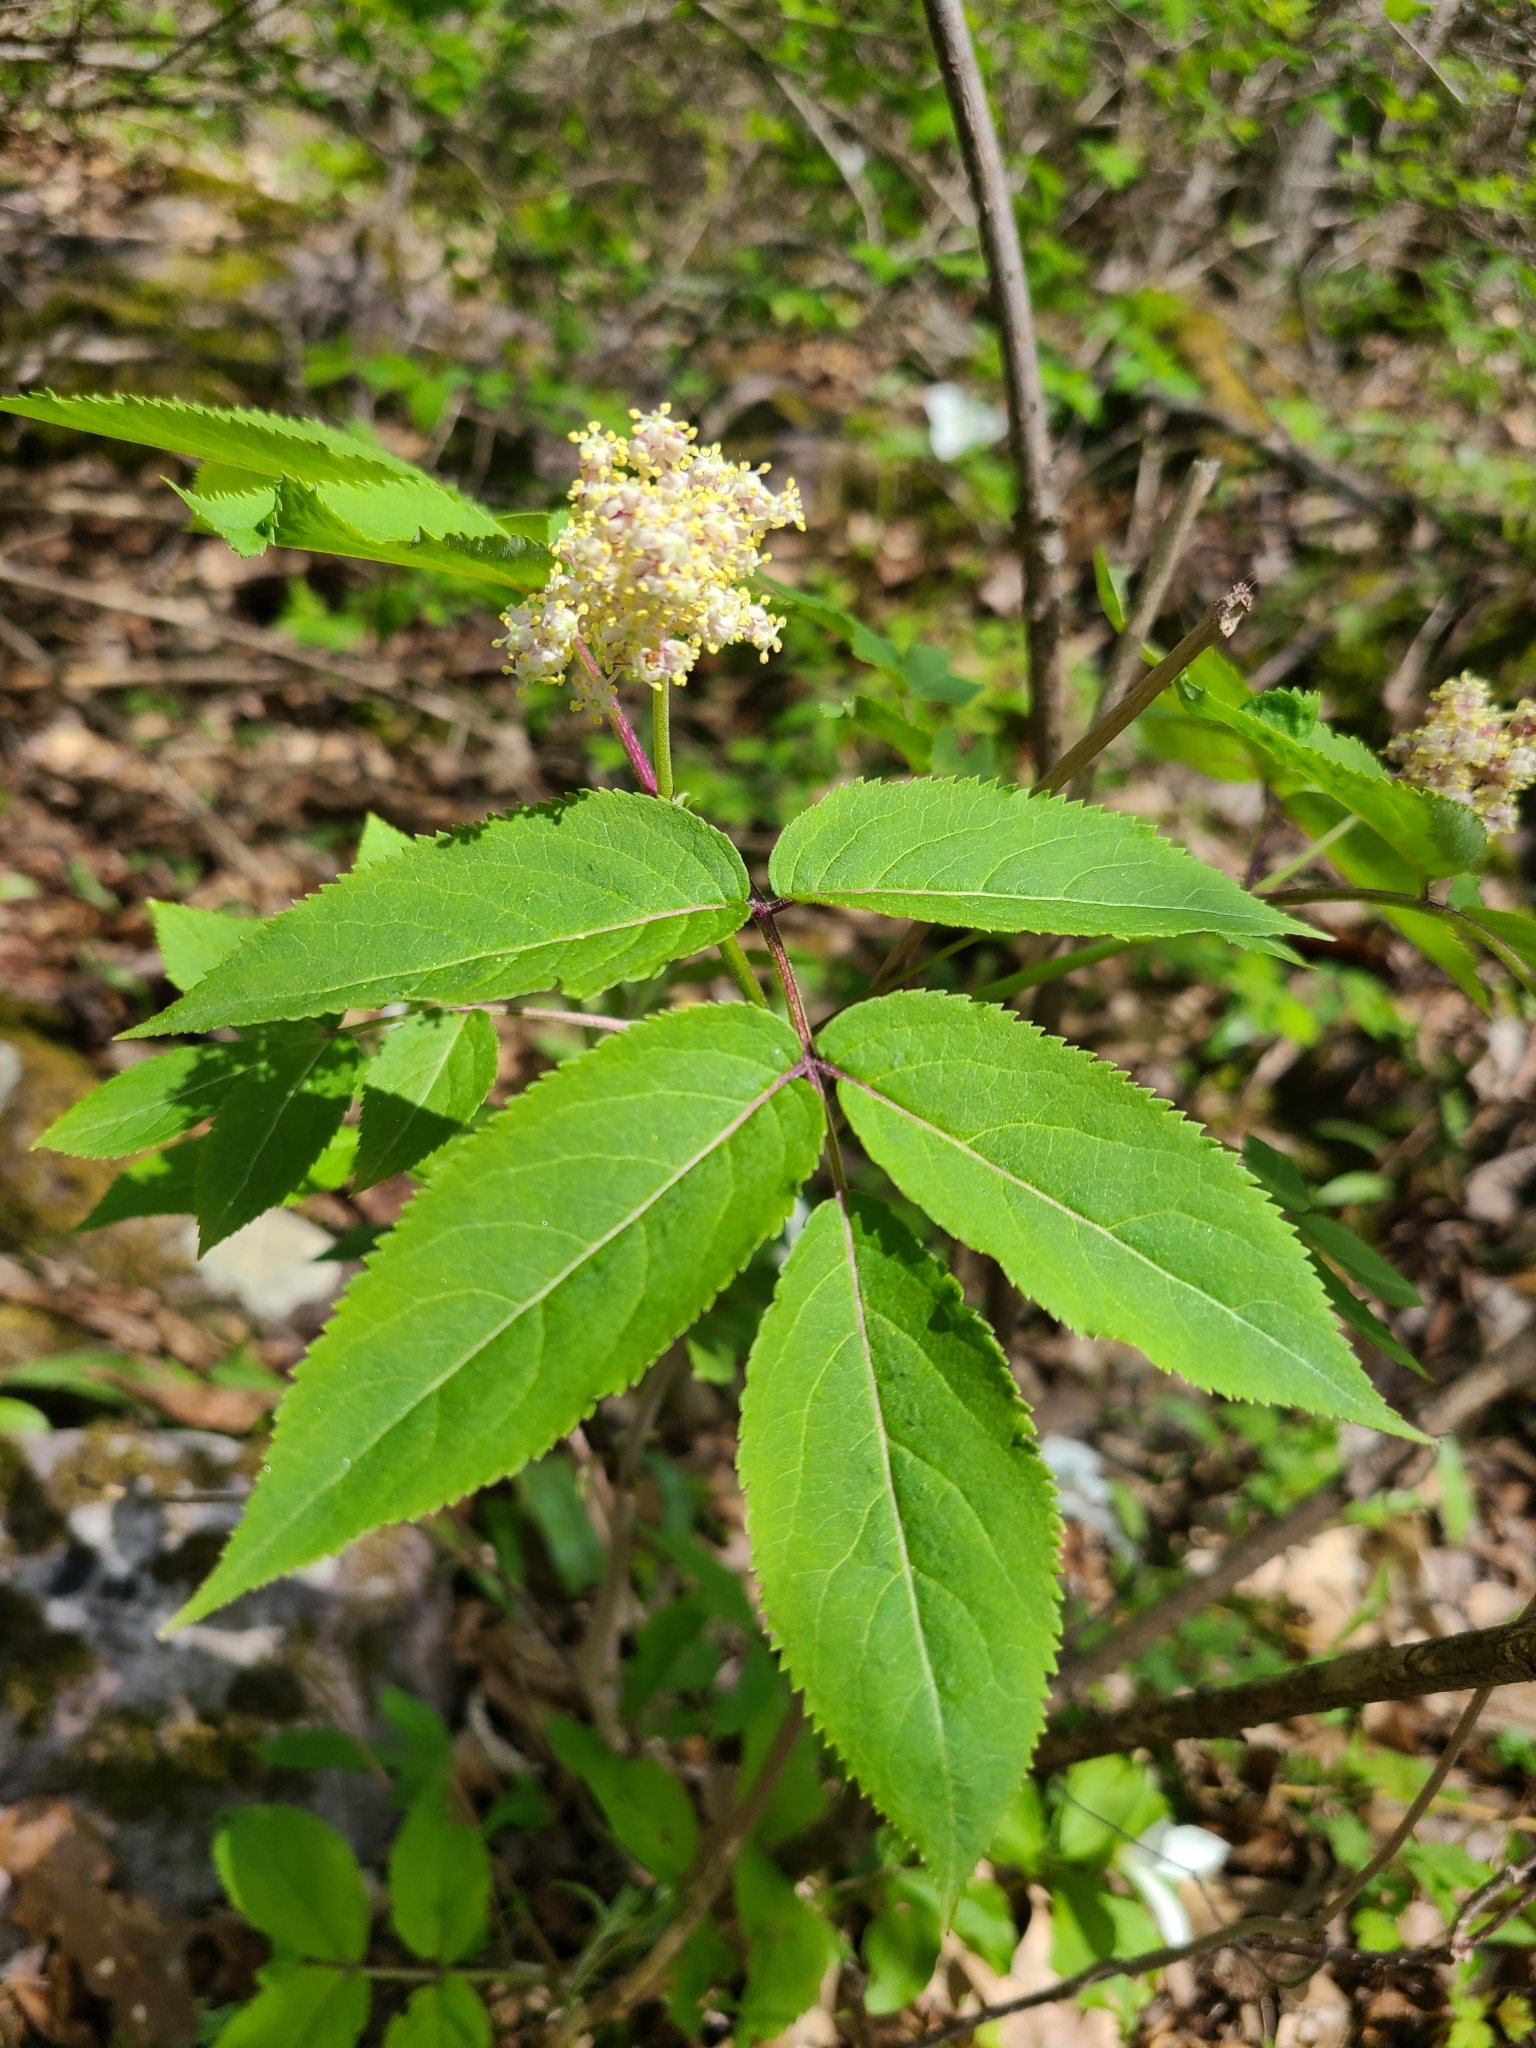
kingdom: Plantae
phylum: Tracheophyta
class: Magnoliopsida
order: Dipsacales
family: Viburnaceae
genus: Sambucus
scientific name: Sambucus racemosa
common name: Red-berried elder
